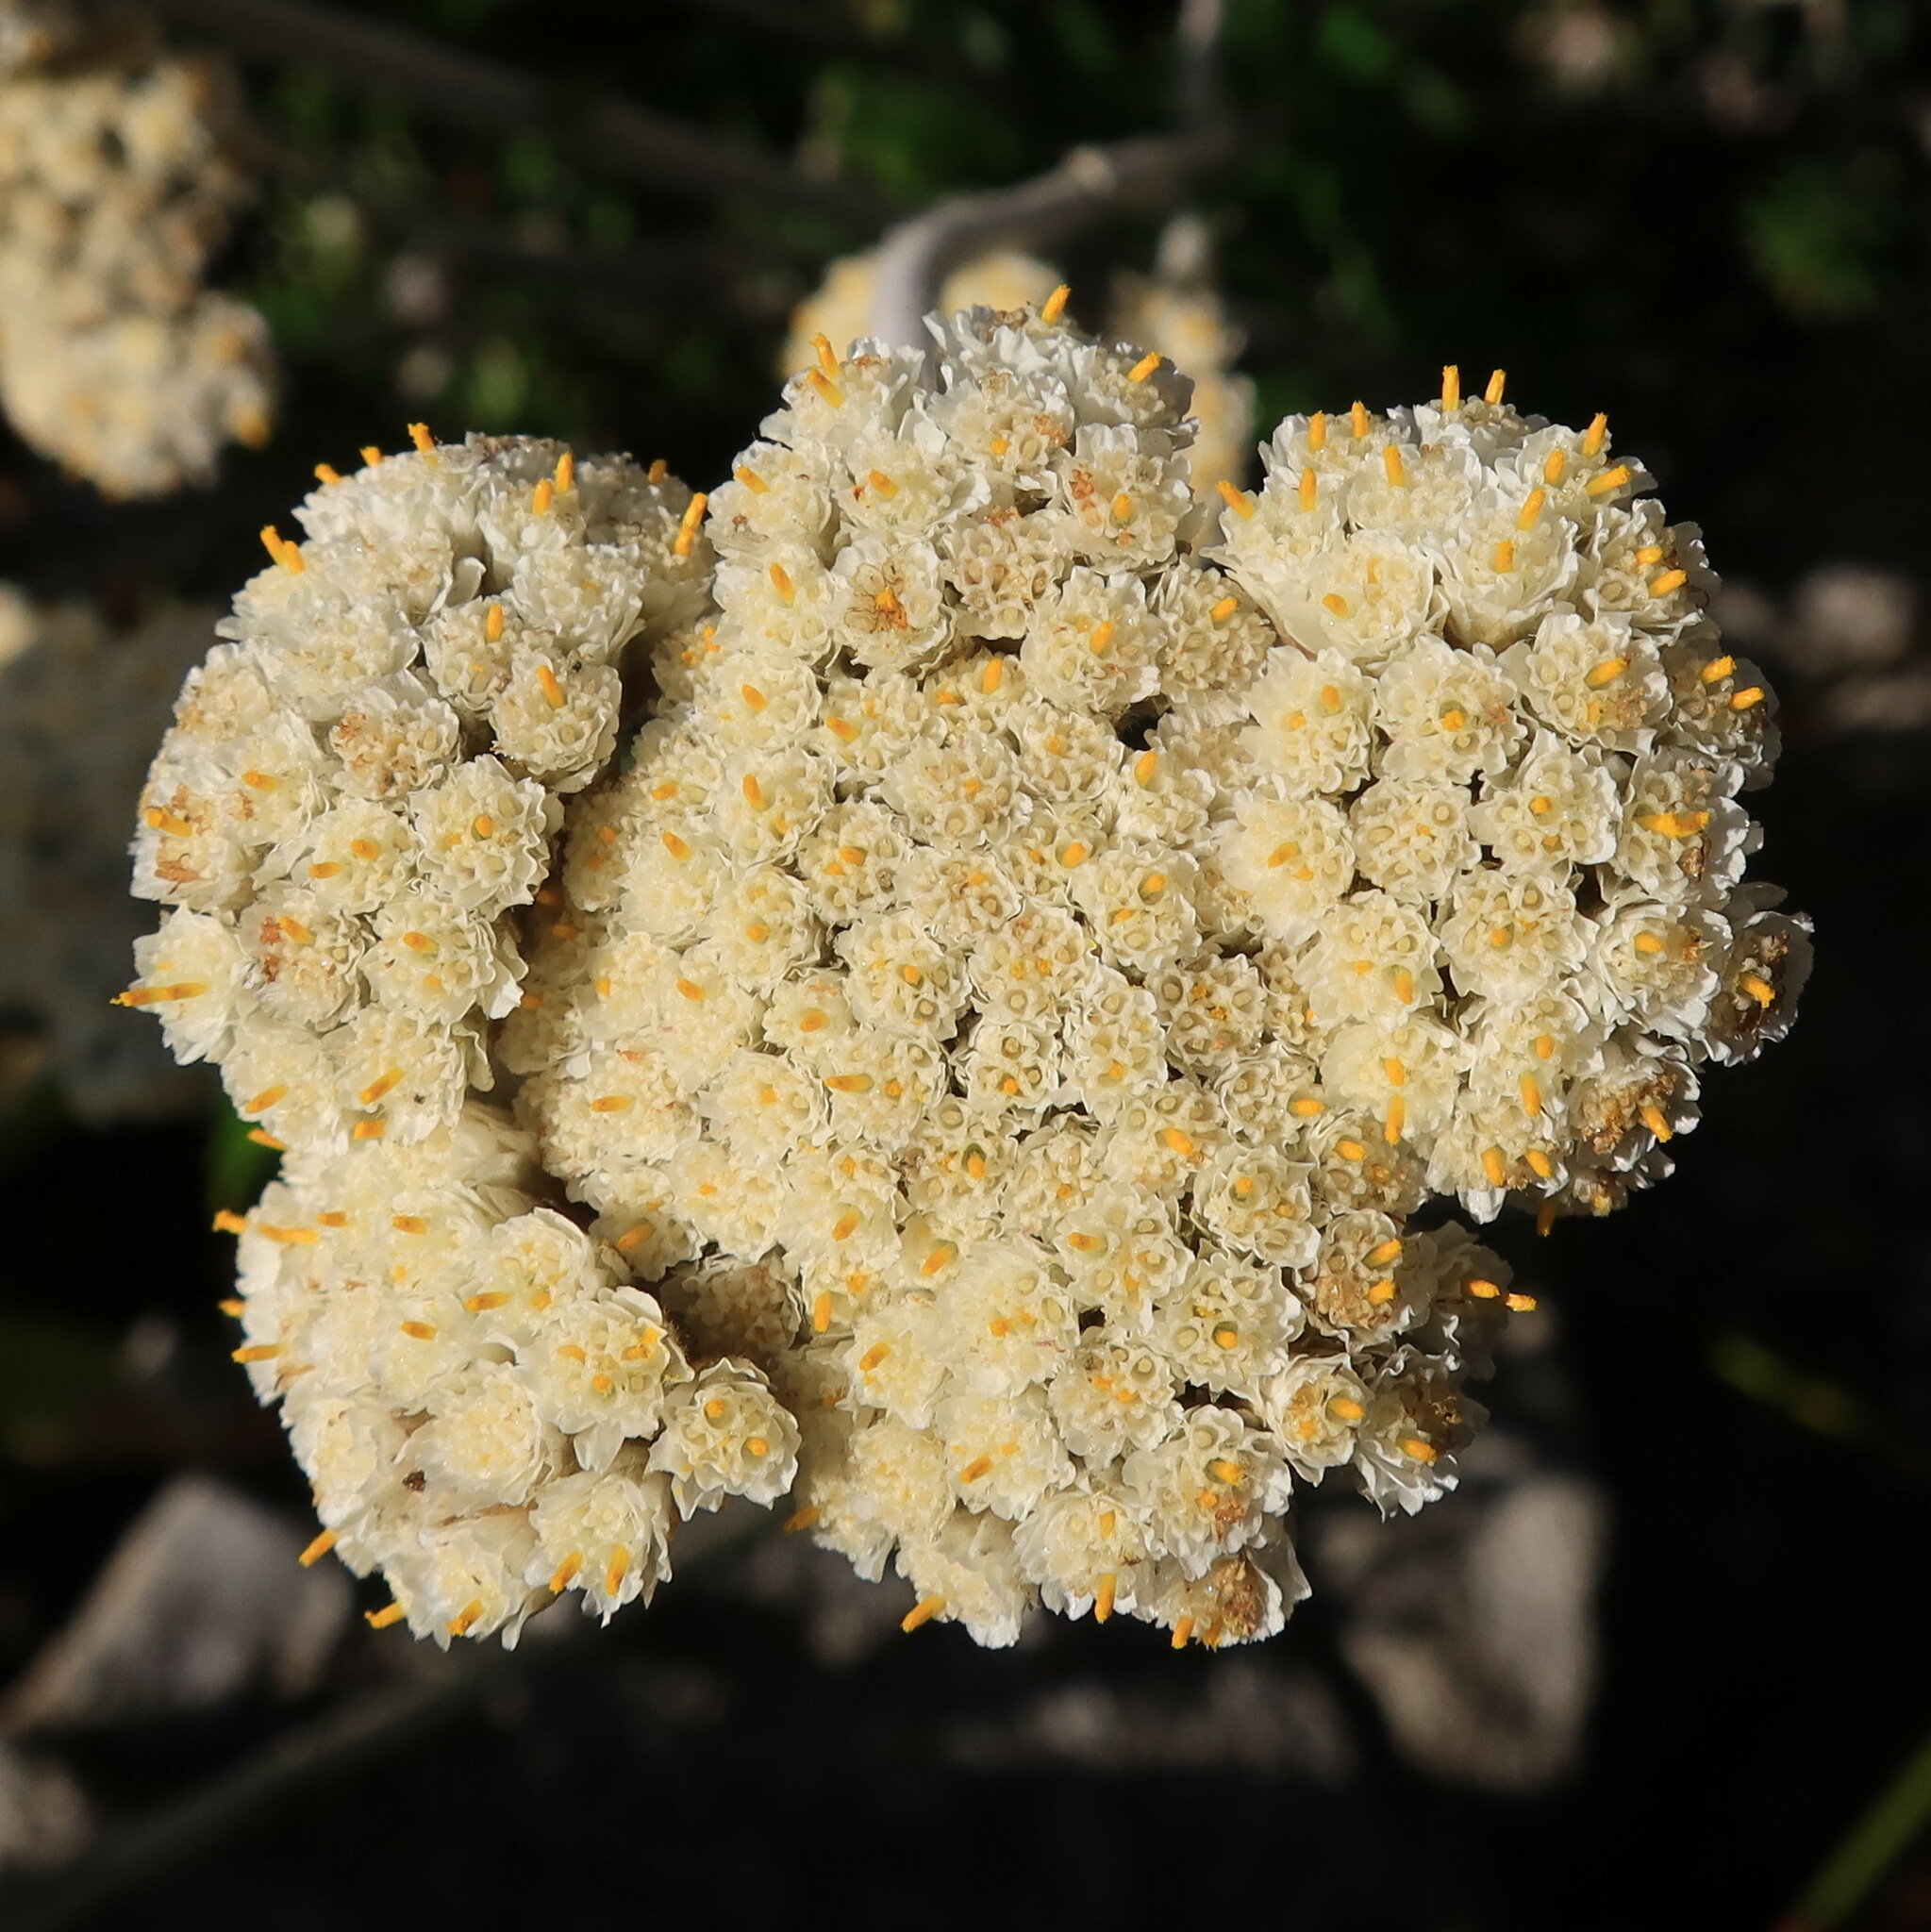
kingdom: Plantae
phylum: Tracheophyta
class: Magnoliopsida
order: Asterales
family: Asteraceae
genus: Anaxeton
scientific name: Anaxeton laeve
